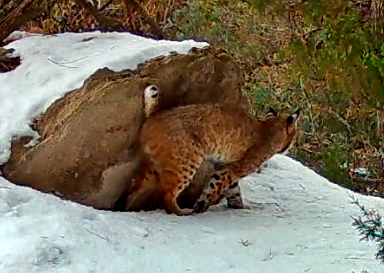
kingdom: Animalia
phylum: Chordata
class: Mammalia
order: Carnivora
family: Felidae
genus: Lynx
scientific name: Lynx rufus
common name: Bobcat
